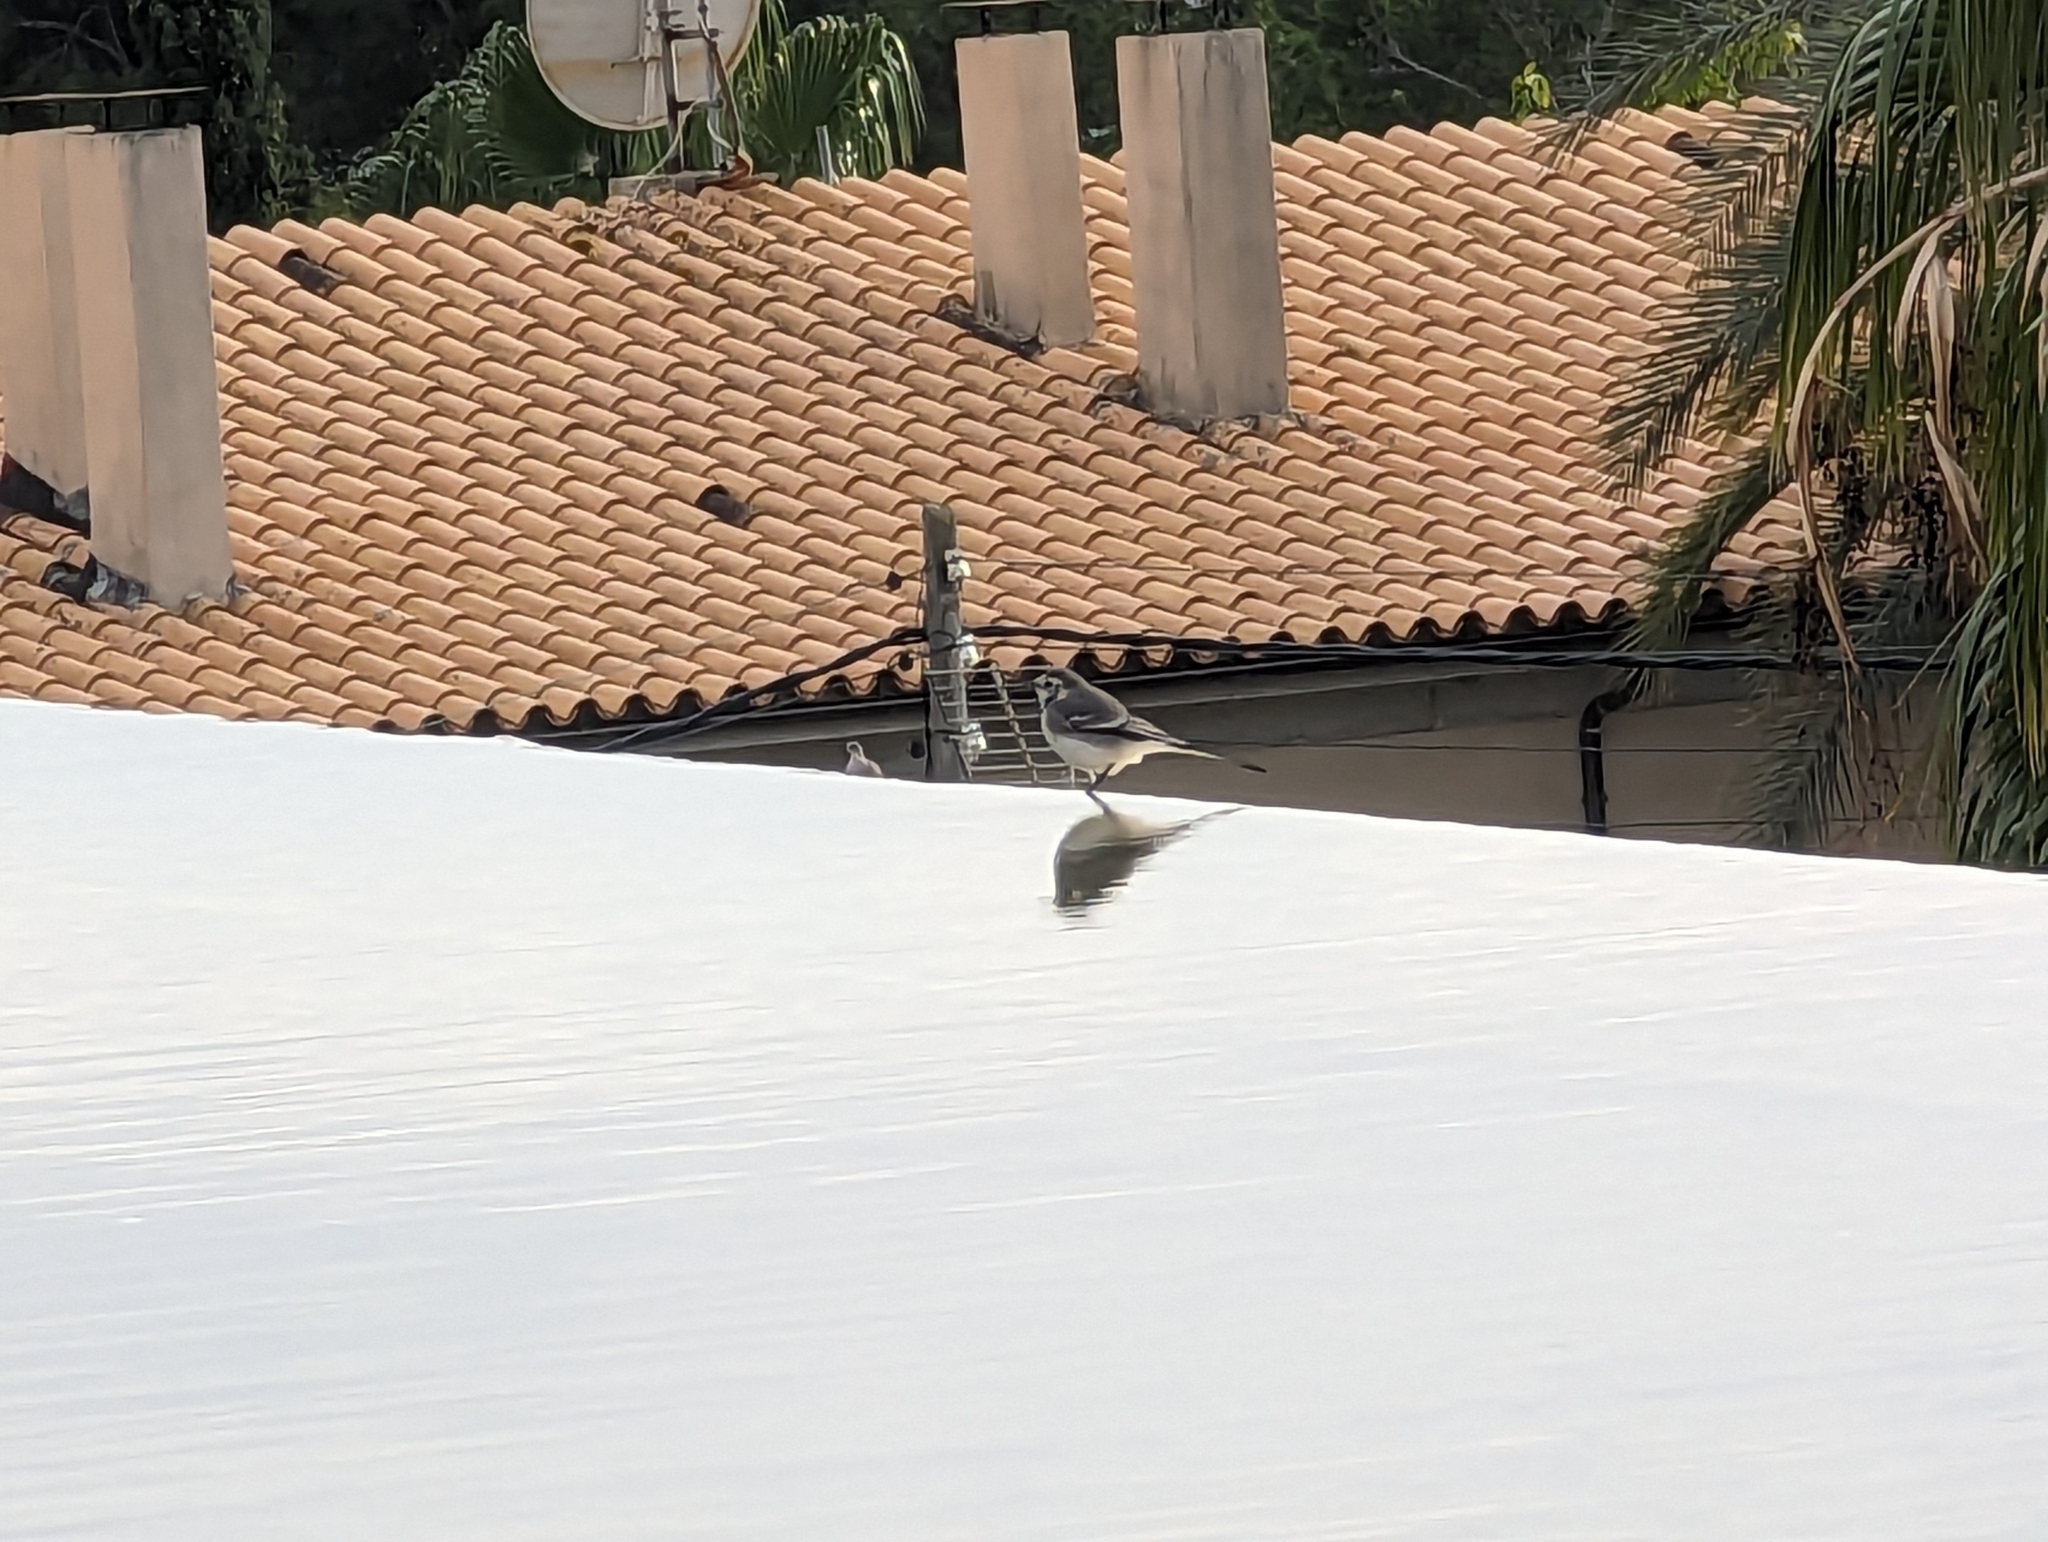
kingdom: Animalia
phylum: Chordata
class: Aves
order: Passeriformes
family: Motacillidae
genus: Motacilla
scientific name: Motacilla alba
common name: White wagtail
